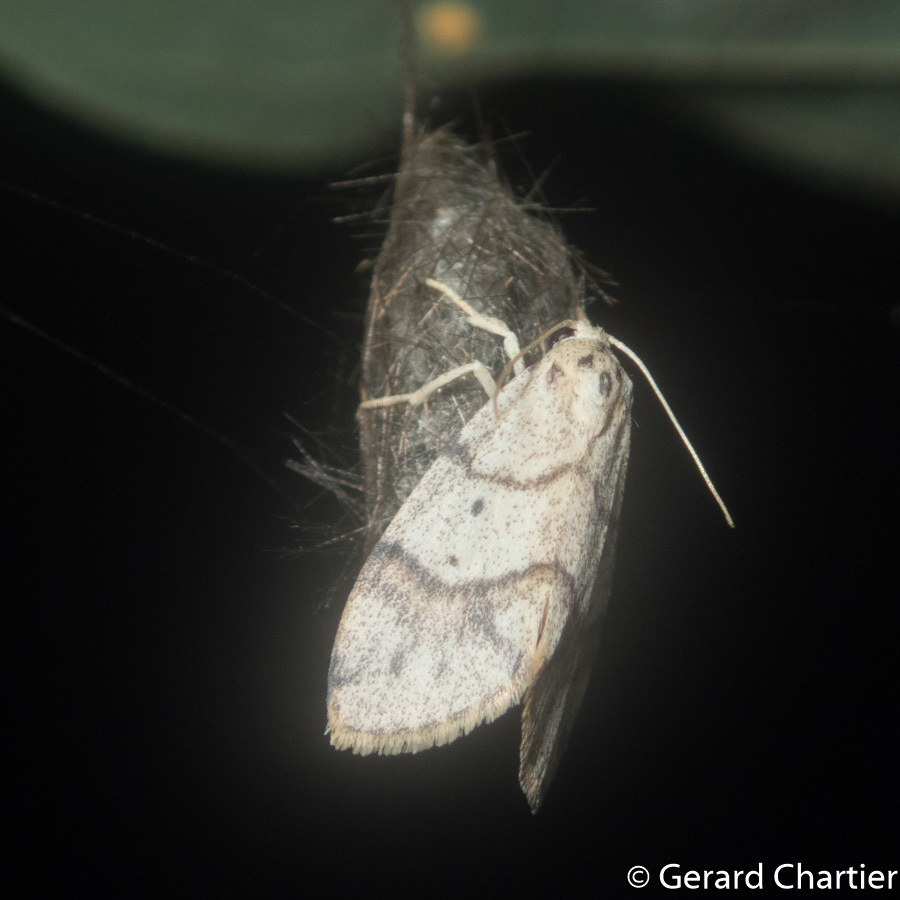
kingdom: Animalia
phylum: Arthropoda
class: Insecta
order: Lepidoptera
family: Erebidae
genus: Holocraspedon
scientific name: Holocraspedon bilineata
